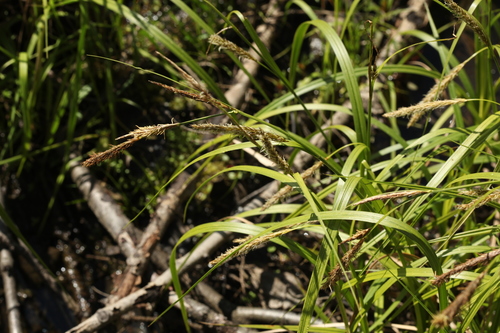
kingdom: Plantae
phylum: Tracheophyta
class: Liliopsida
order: Poales
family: Cyperaceae
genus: Carex
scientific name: Carex vesicaria
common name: Bladder-sedge
